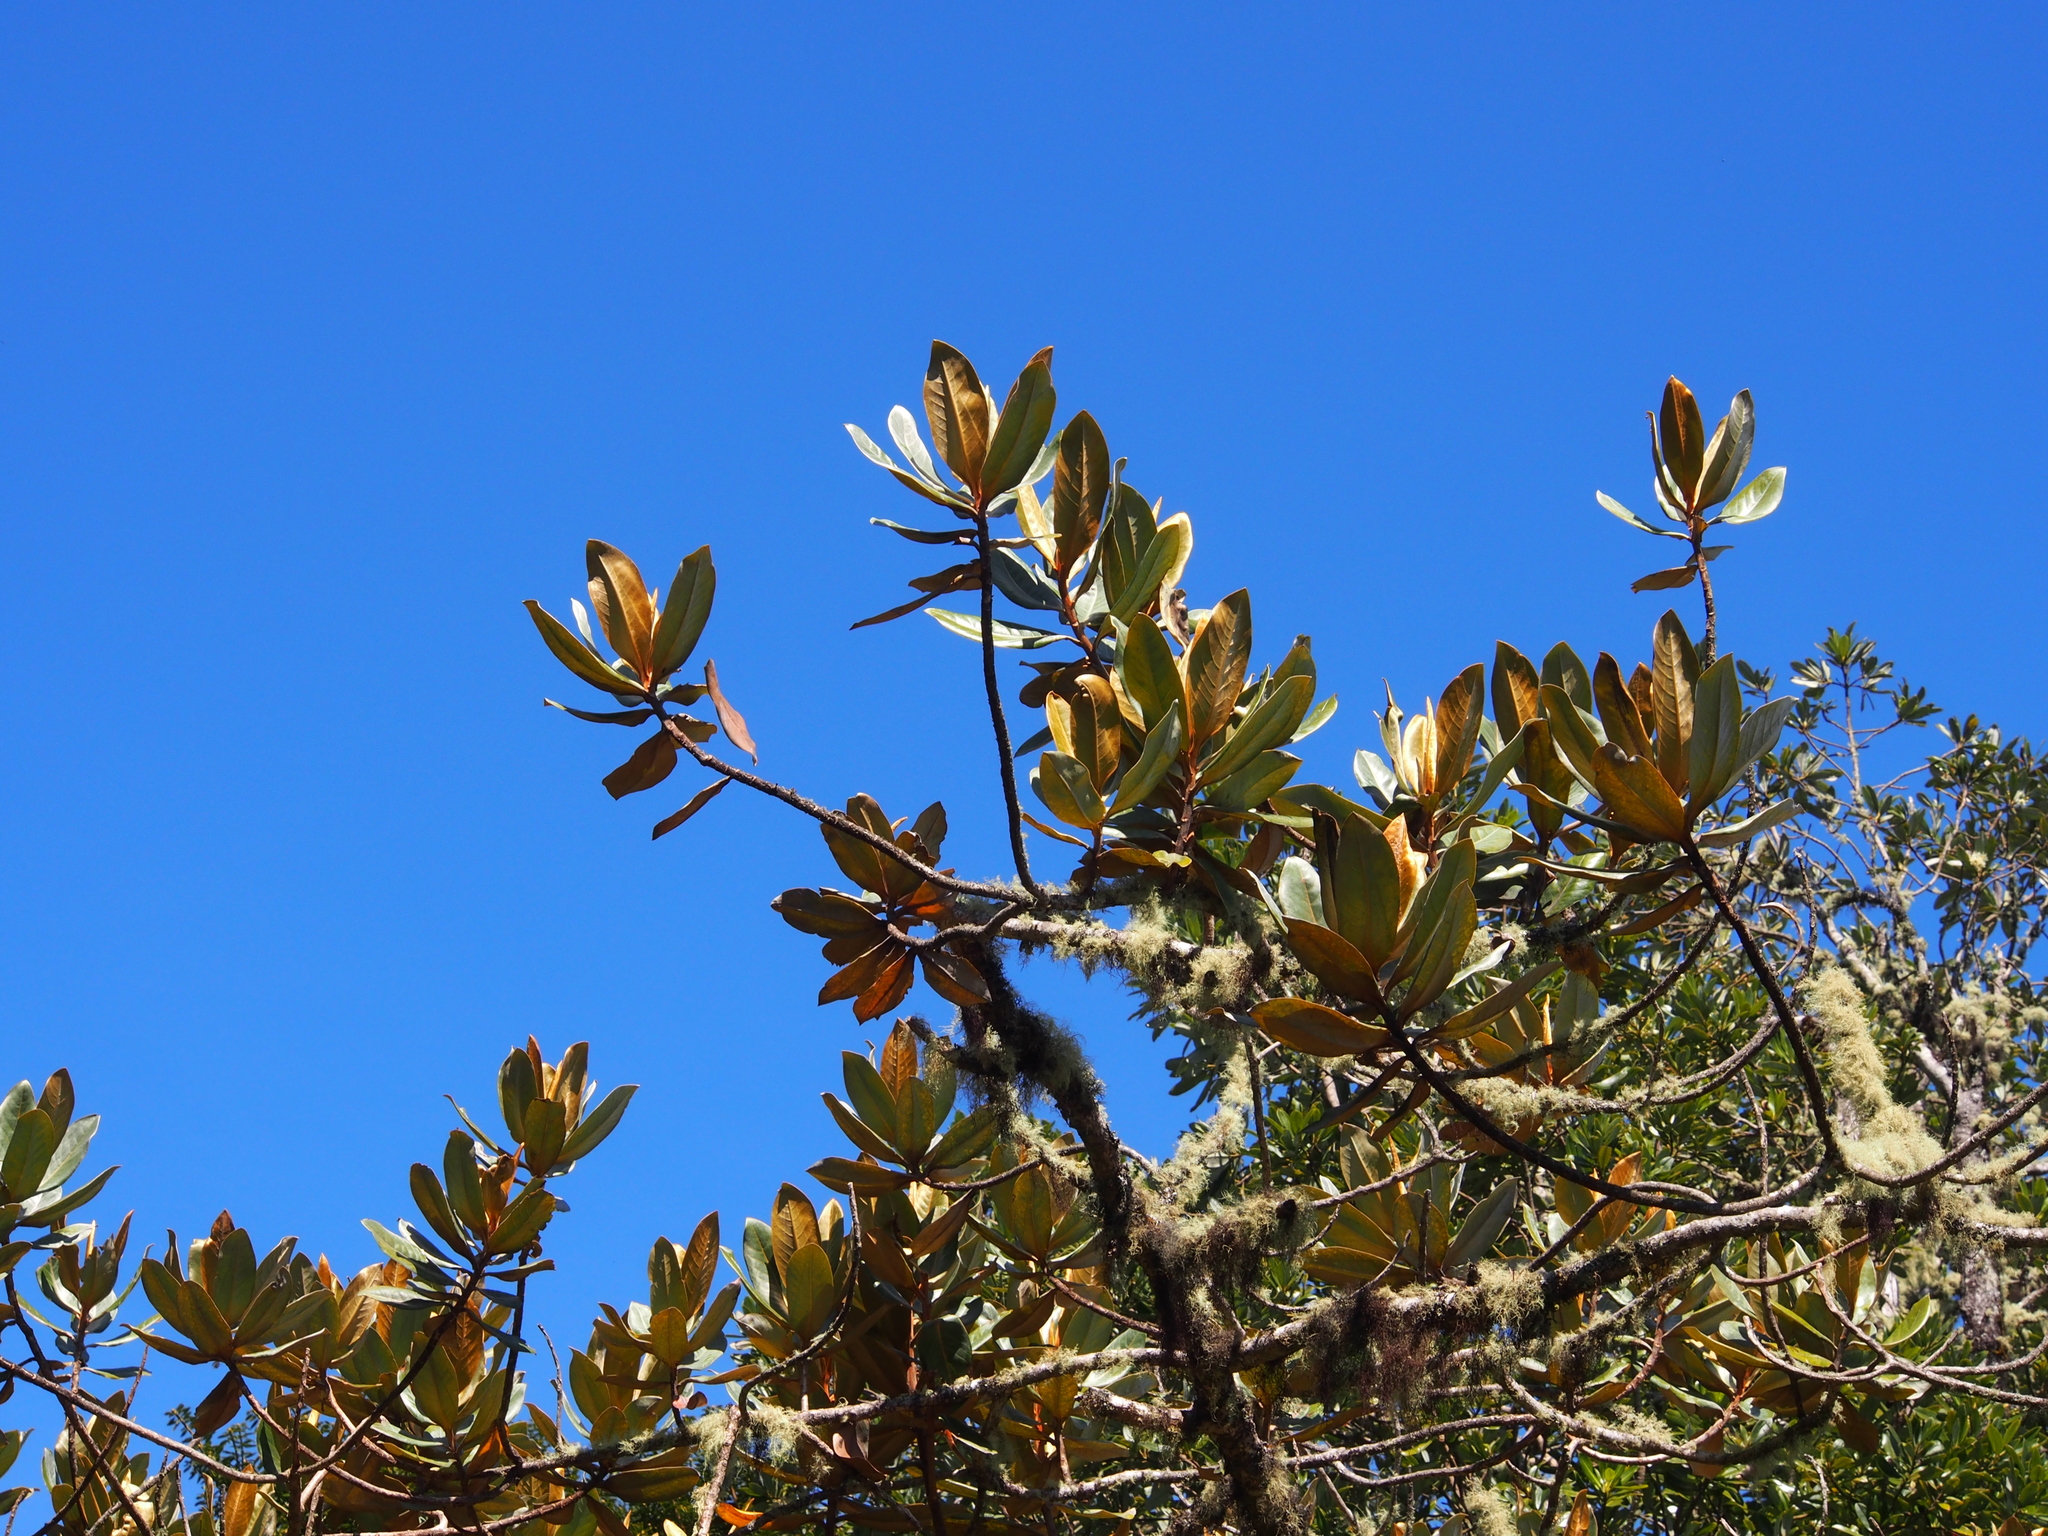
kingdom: Plantae
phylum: Tracheophyta
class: Magnoliopsida
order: Laurales
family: Lauraceae
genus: Andea
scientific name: Andea fulvescens
